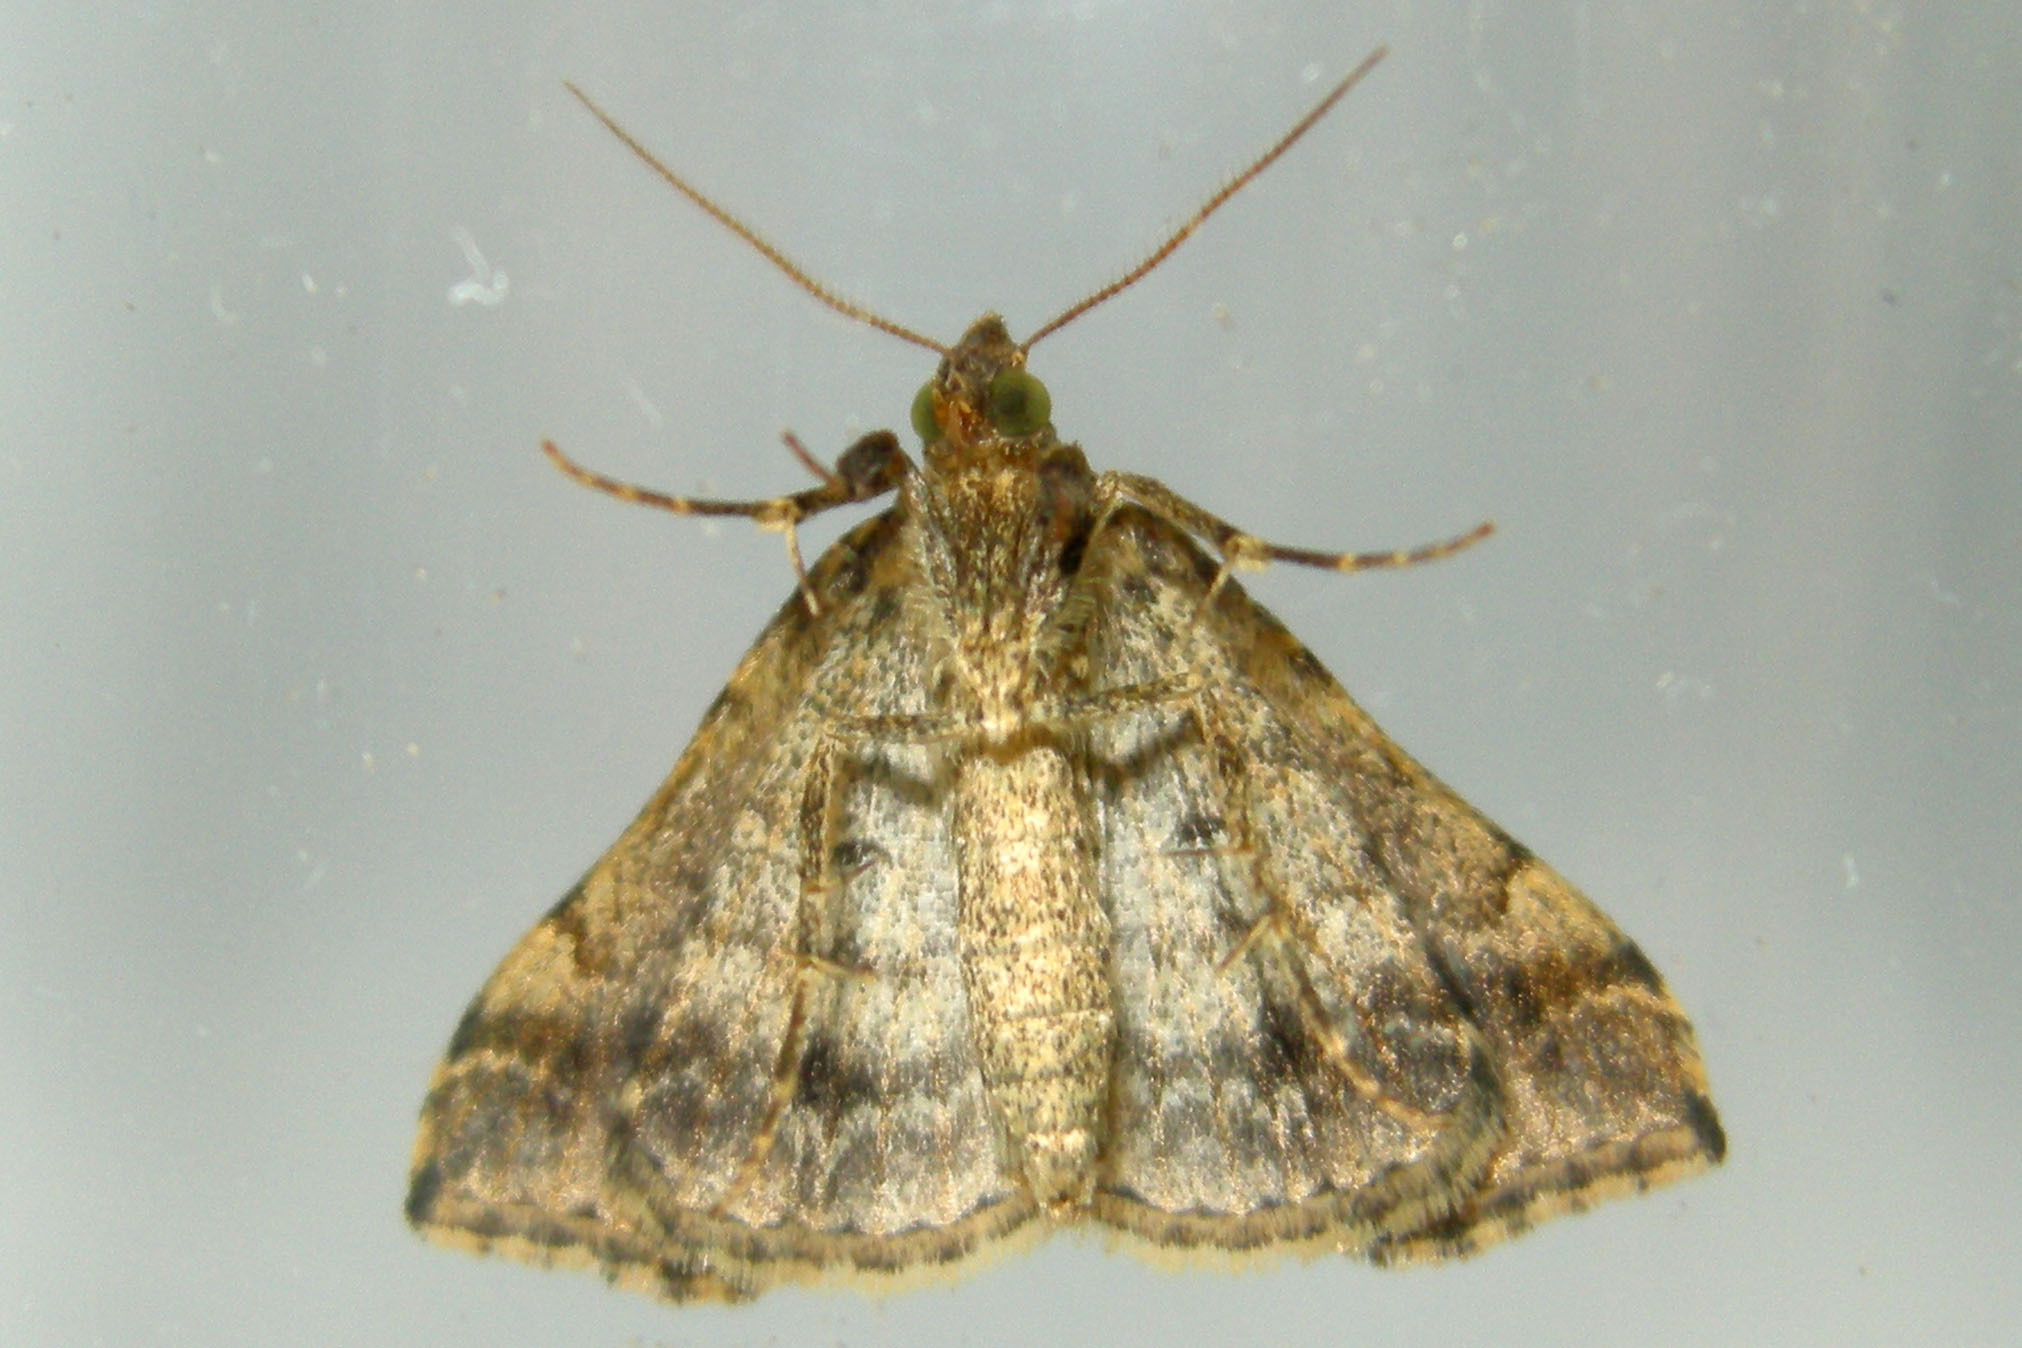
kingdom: Animalia
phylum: Arthropoda
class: Insecta
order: Lepidoptera
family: Erebidae
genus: Phaeolita
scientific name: Phaeolita pyramusalis
